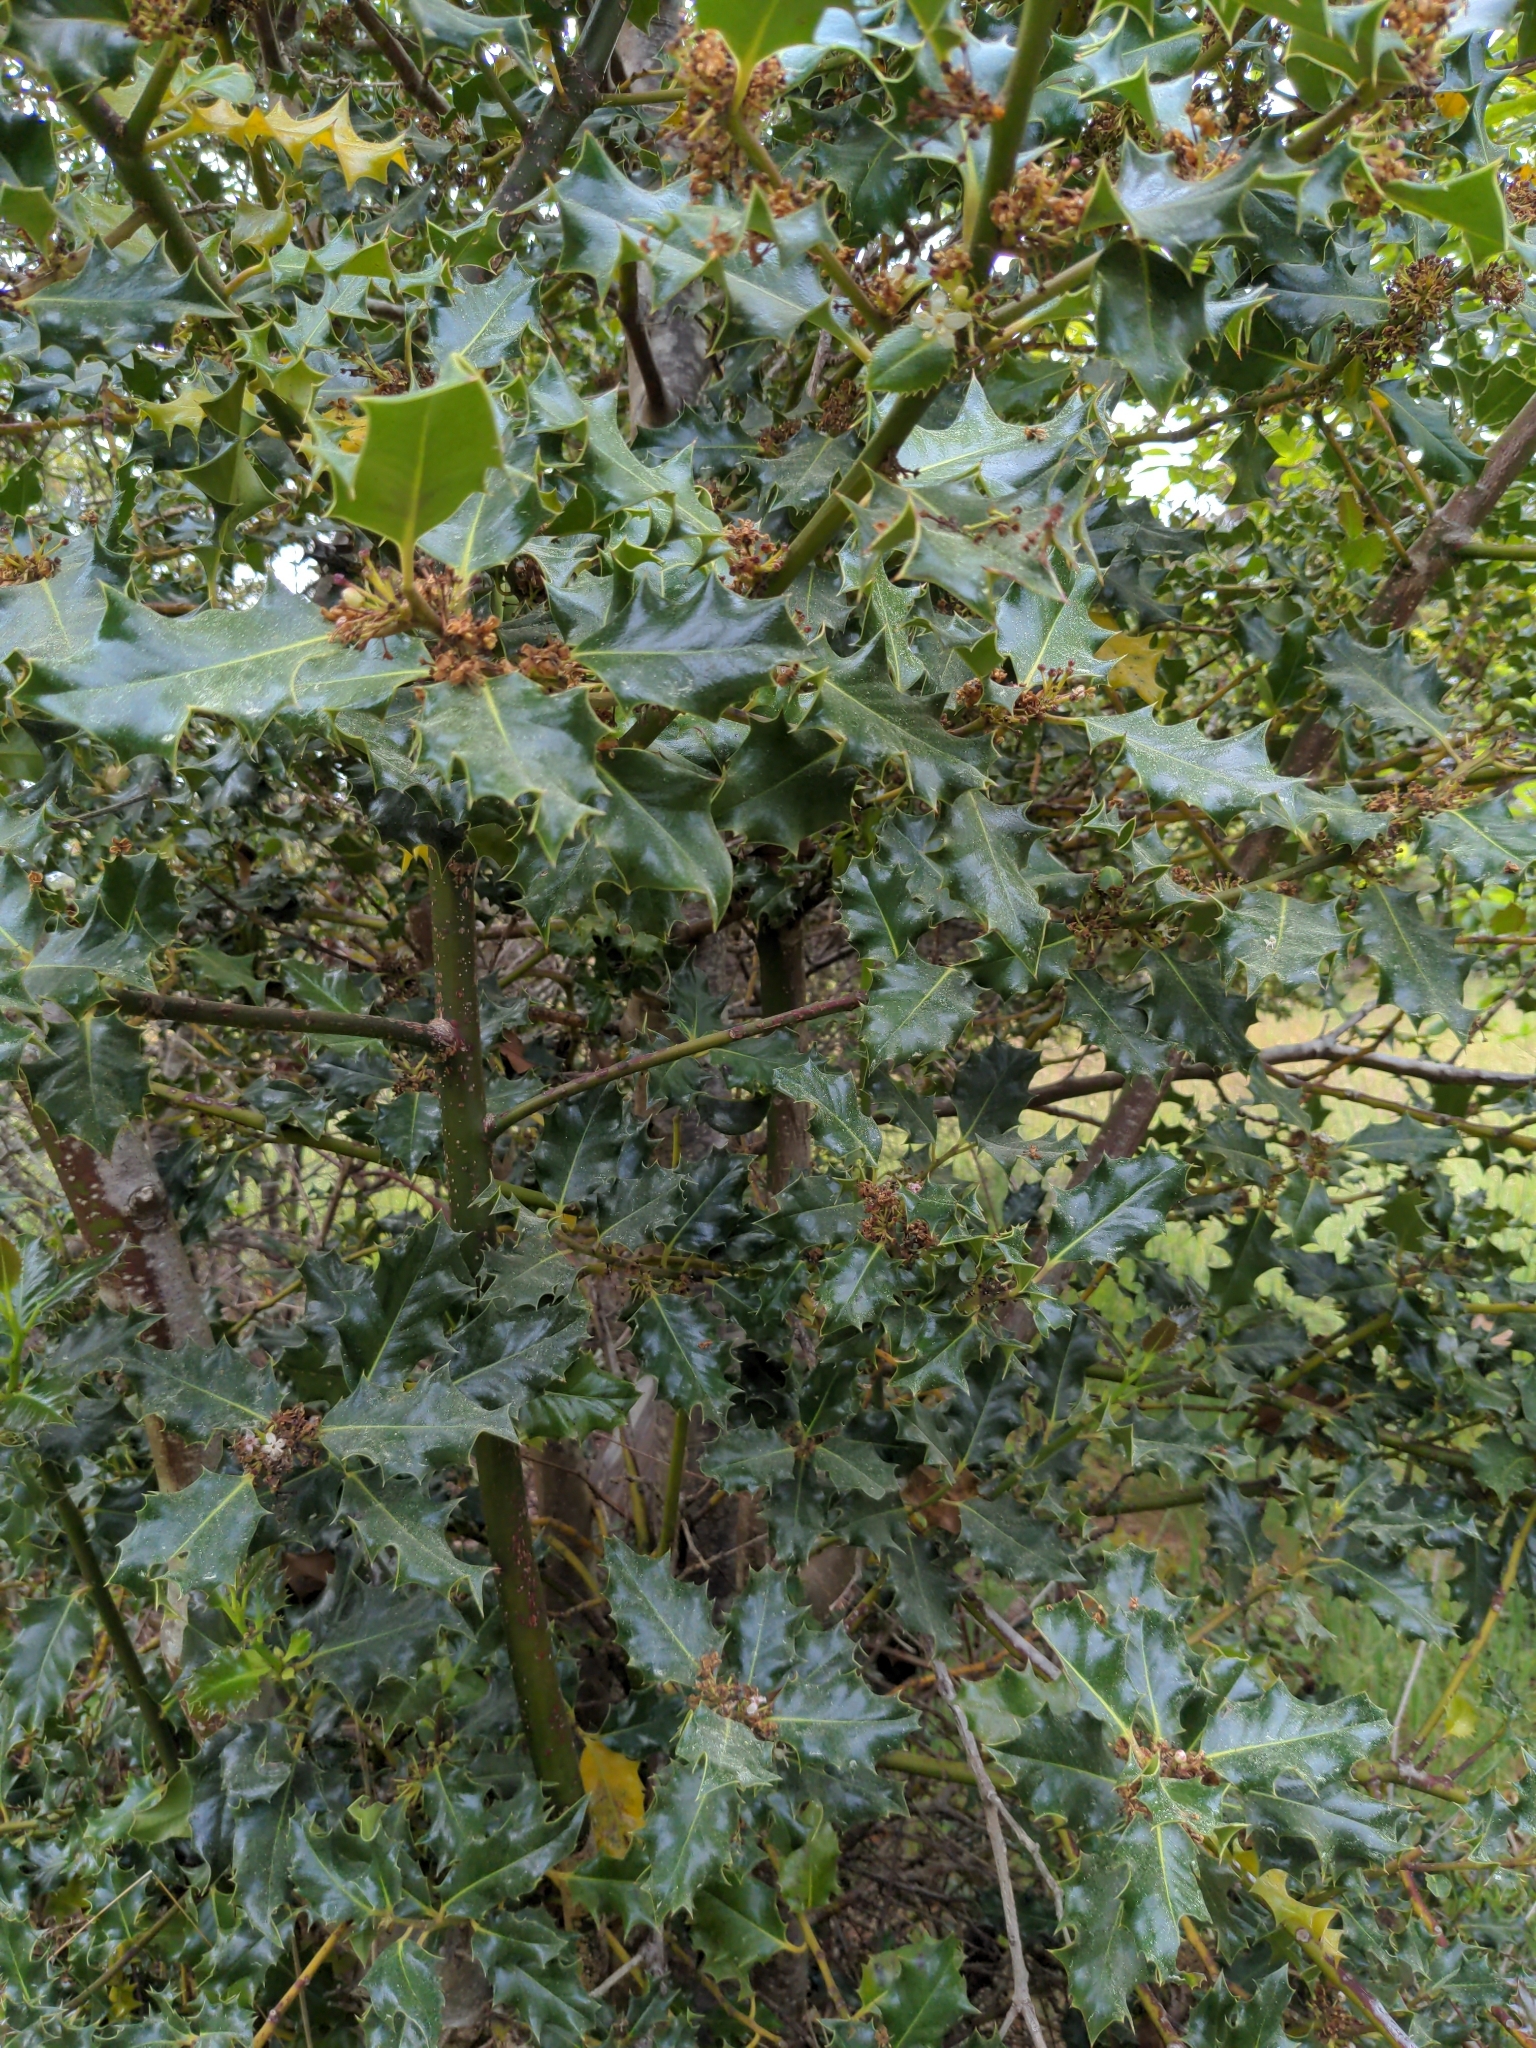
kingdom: Plantae
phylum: Tracheophyta
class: Magnoliopsida
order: Aquifoliales
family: Aquifoliaceae
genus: Ilex
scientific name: Ilex aquifolium
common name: English holly
